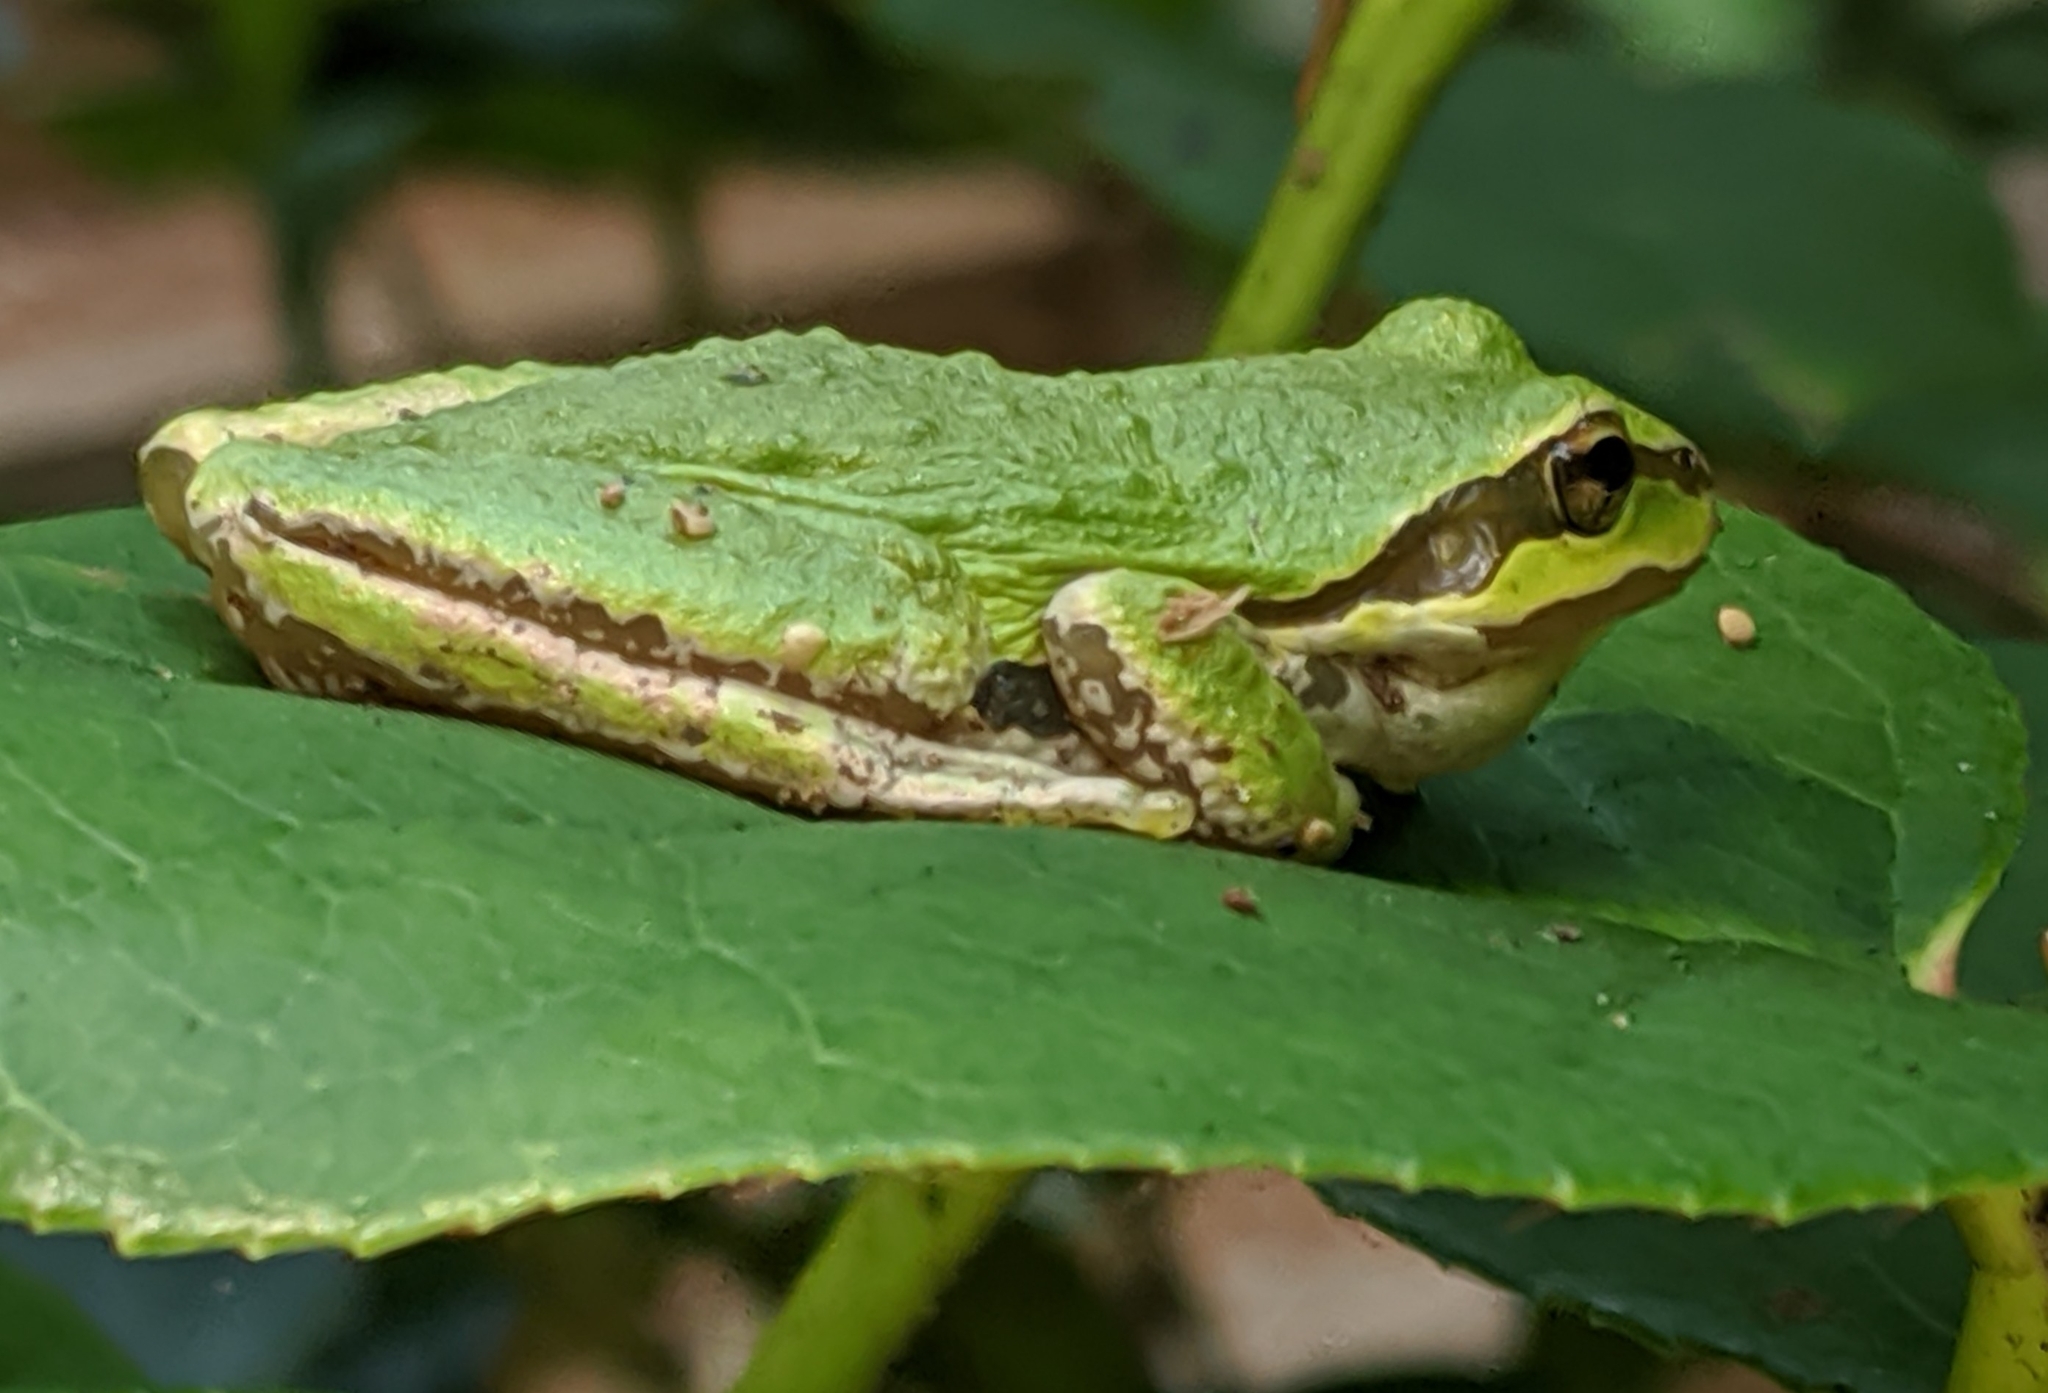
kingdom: Animalia
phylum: Chordata
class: Amphibia
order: Anura
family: Hylidae
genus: Pseudacris
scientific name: Pseudacris regilla
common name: Pacific chorus frog
